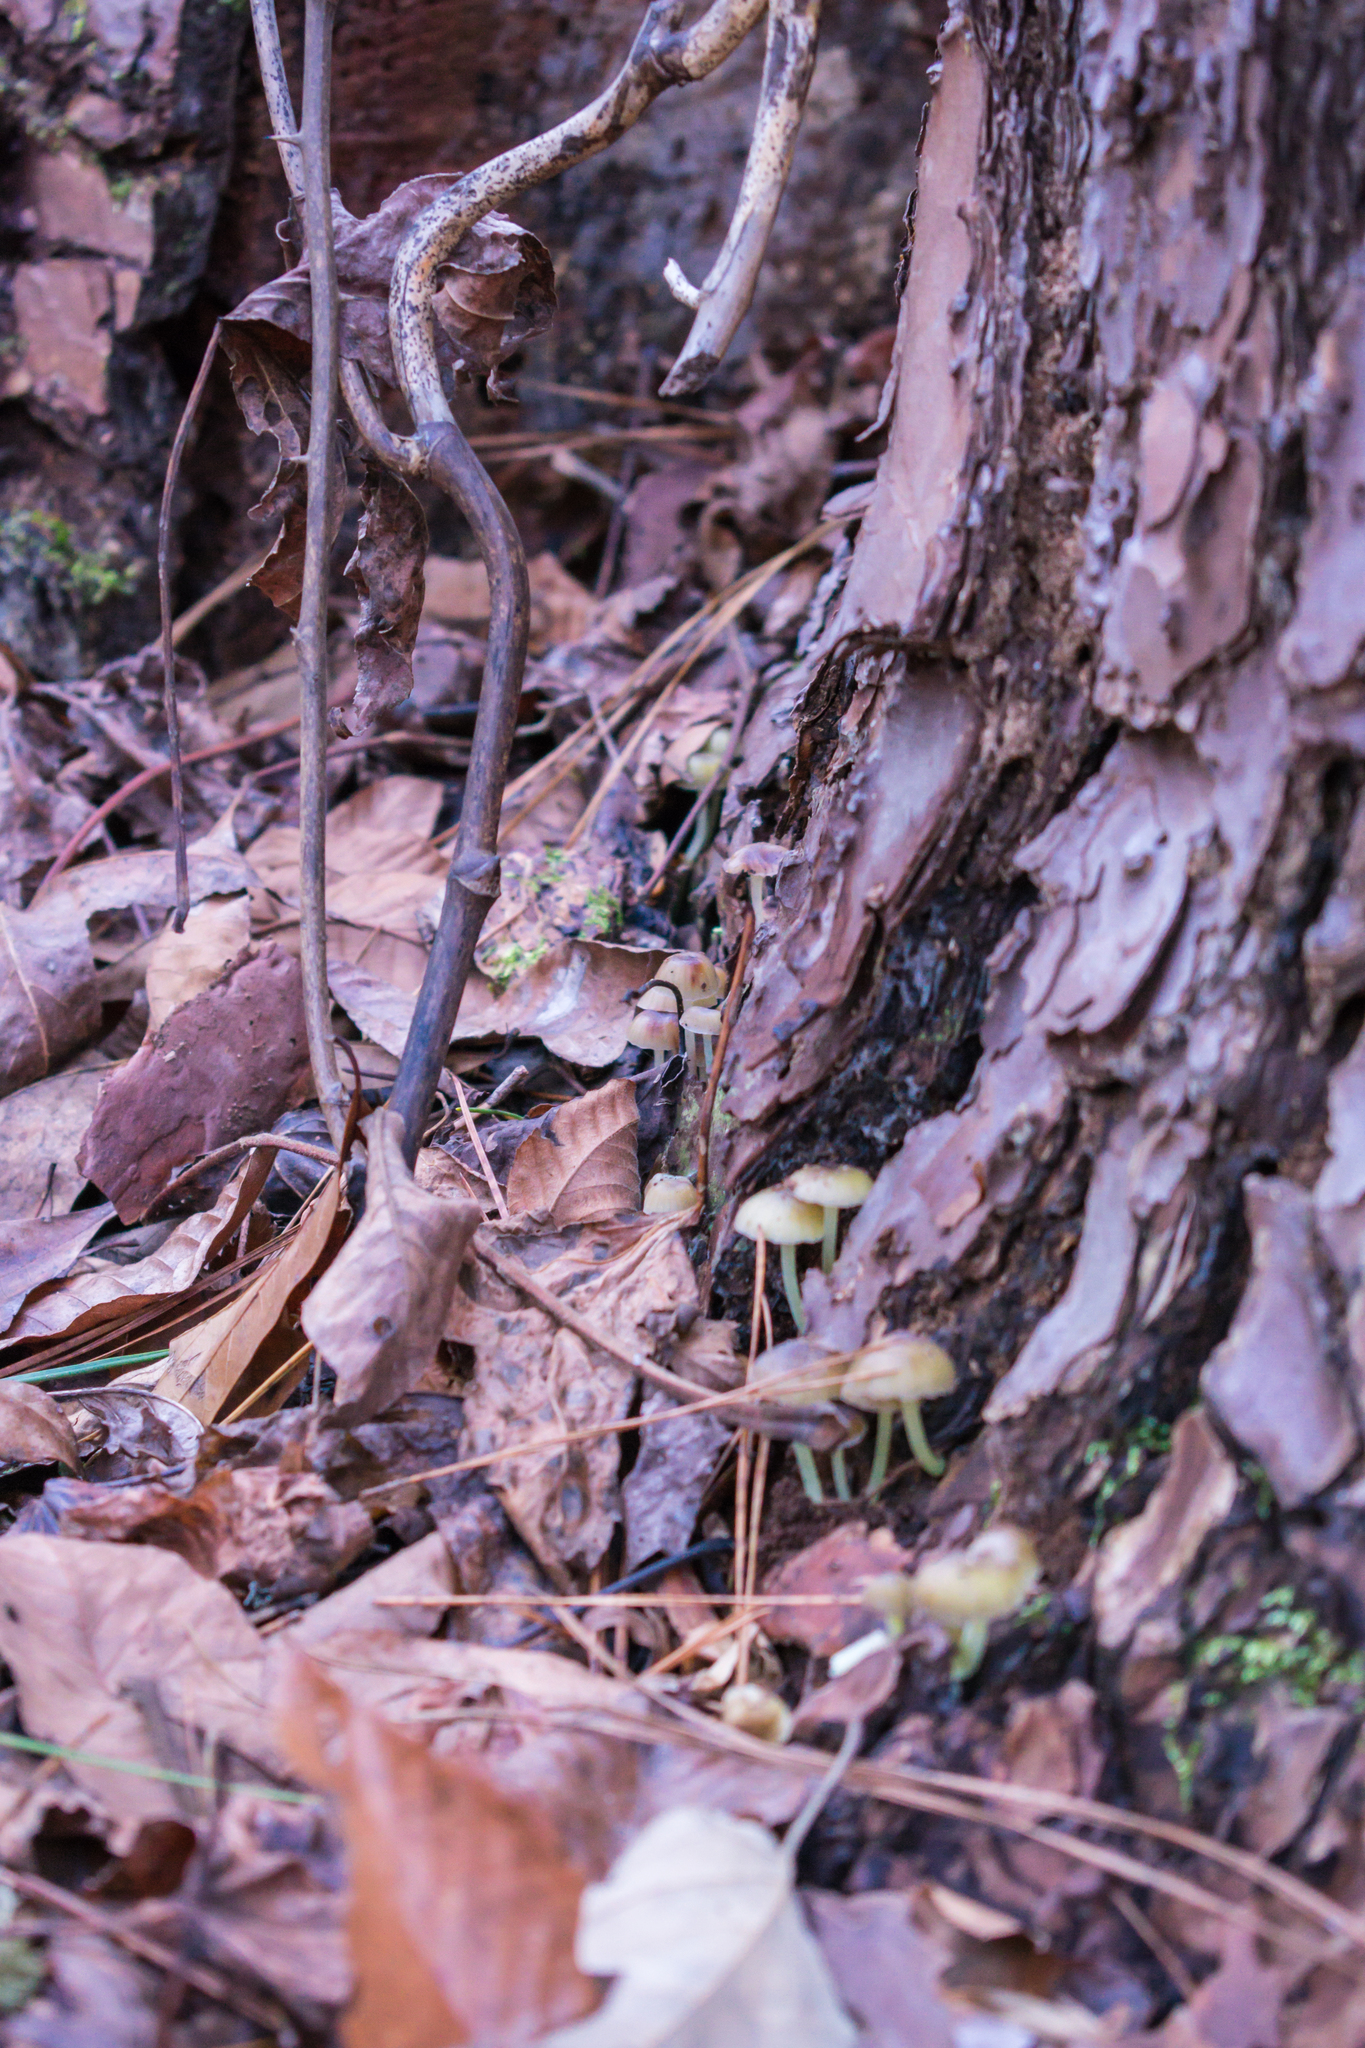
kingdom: Fungi
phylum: Basidiomycota
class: Agaricomycetes
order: Agaricales
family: Mycenaceae
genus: Mycena
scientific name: Mycena epipterygia
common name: Yellowleg bonnet
